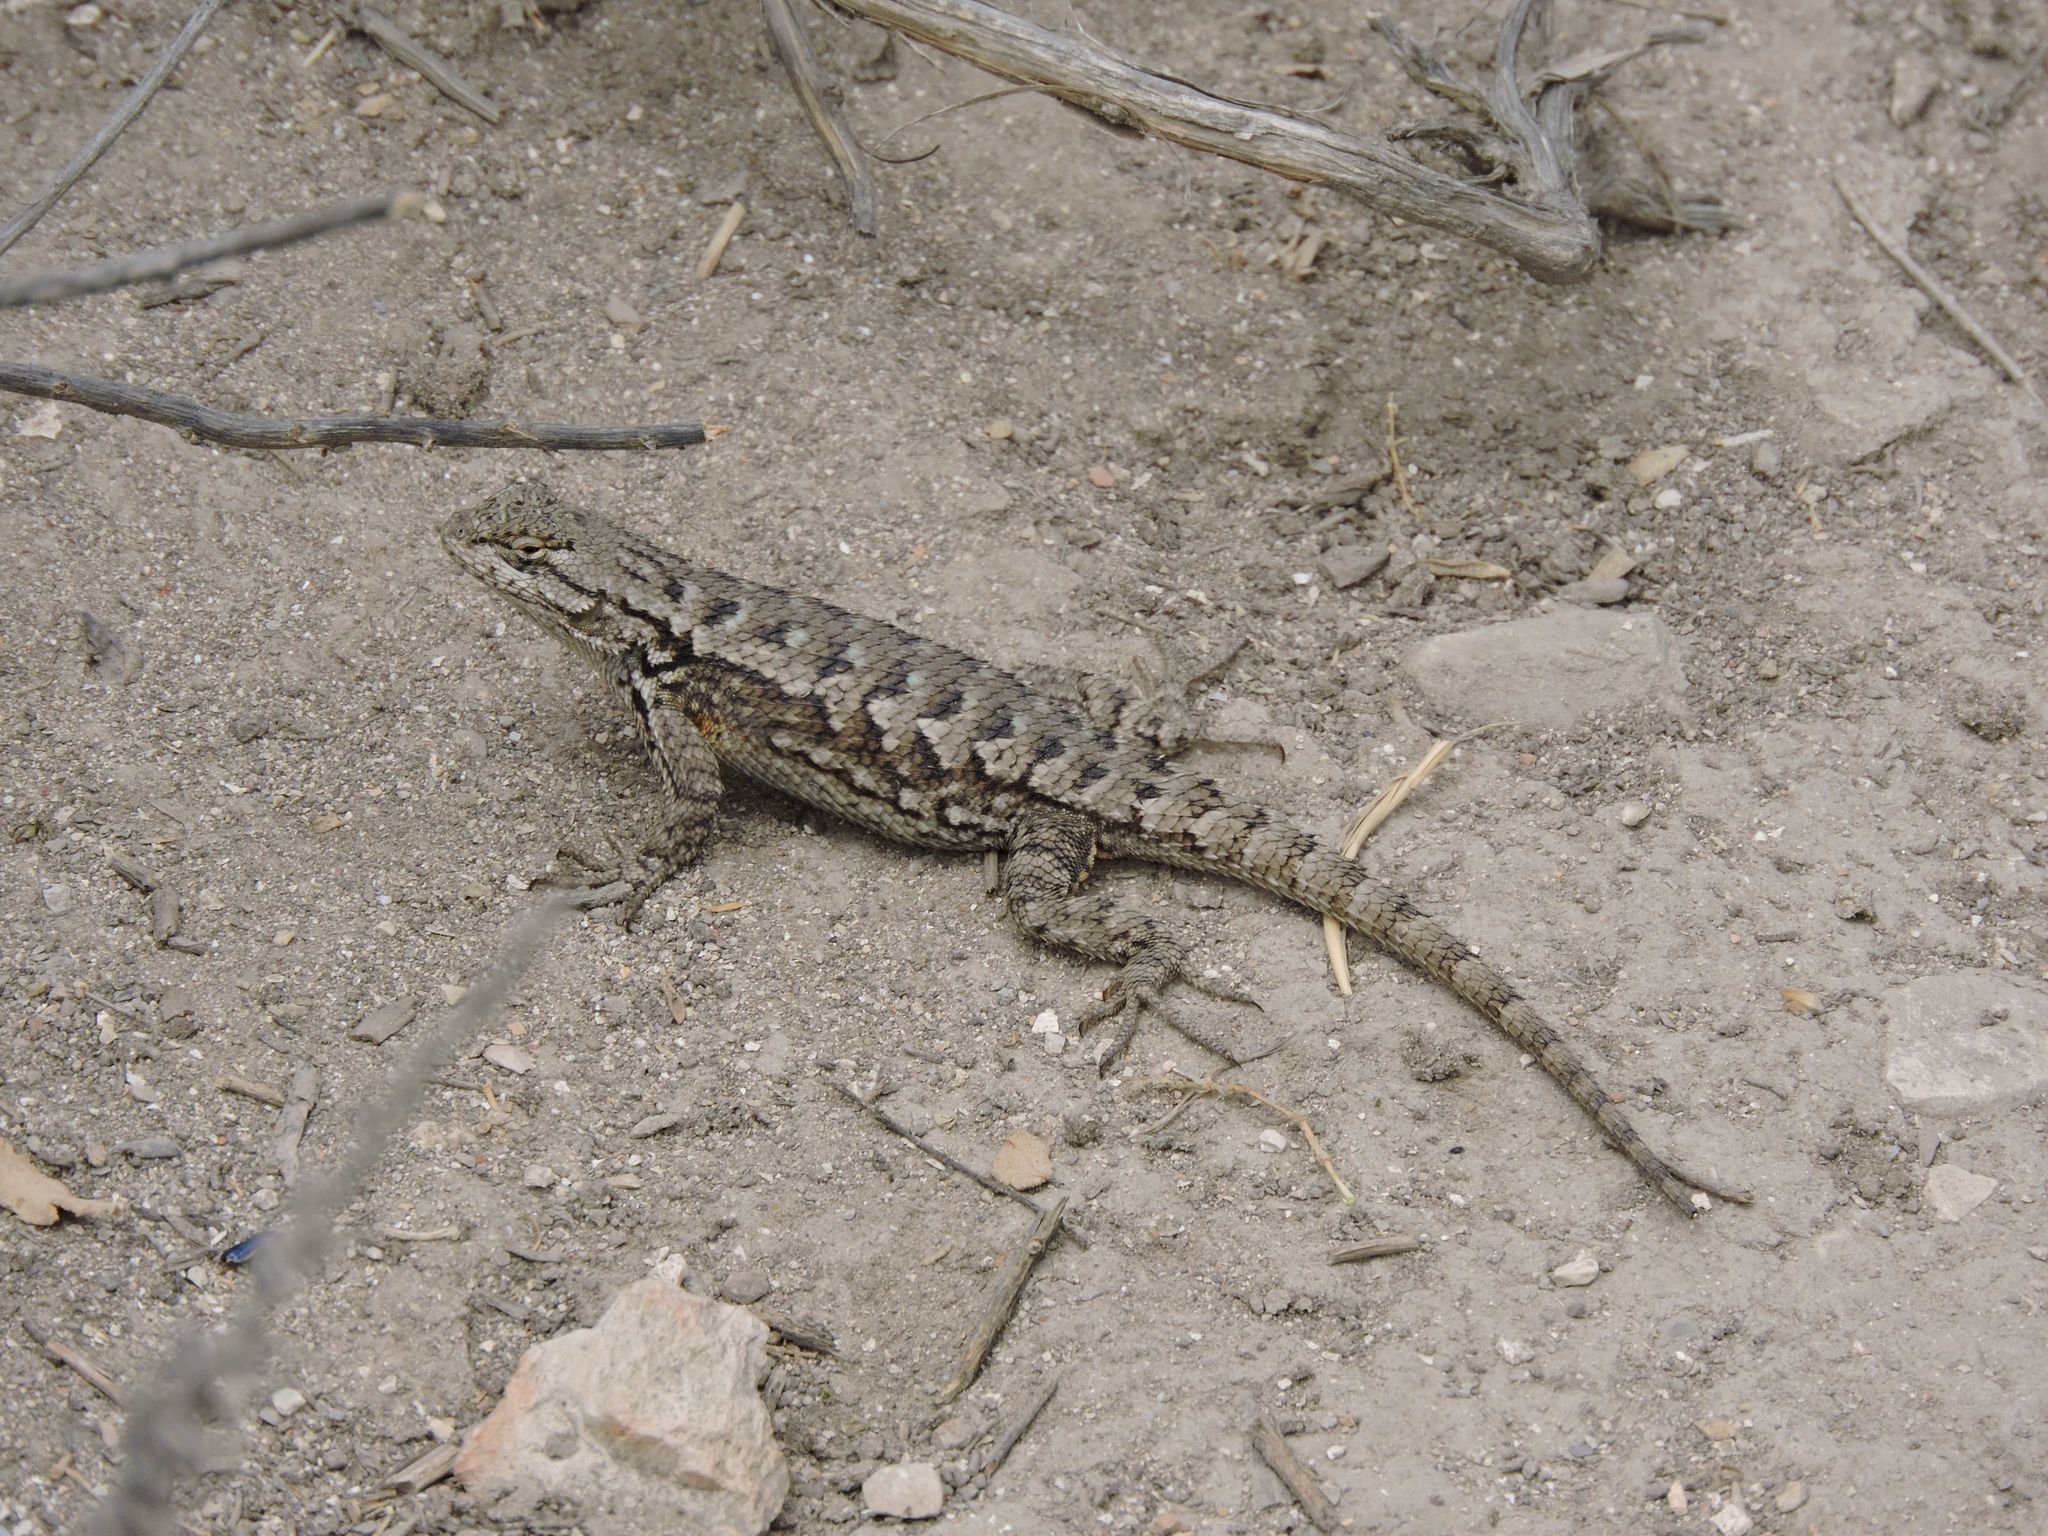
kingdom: Animalia
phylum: Chordata
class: Squamata
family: Phrynosomatidae
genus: Sceloporus
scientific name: Sceloporus occidentalis
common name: Western fence lizard
